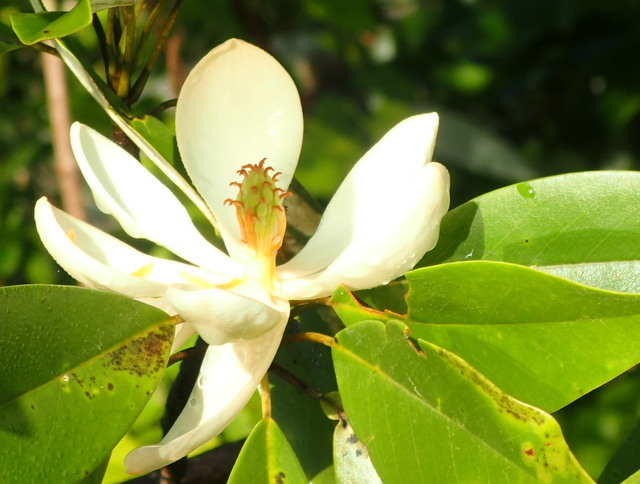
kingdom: Plantae
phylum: Tracheophyta
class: Magnoliopsida
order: Magnoliales
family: Magnoliaceae
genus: Magnolia
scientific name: Magnolia virginiana
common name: Swamp bay
